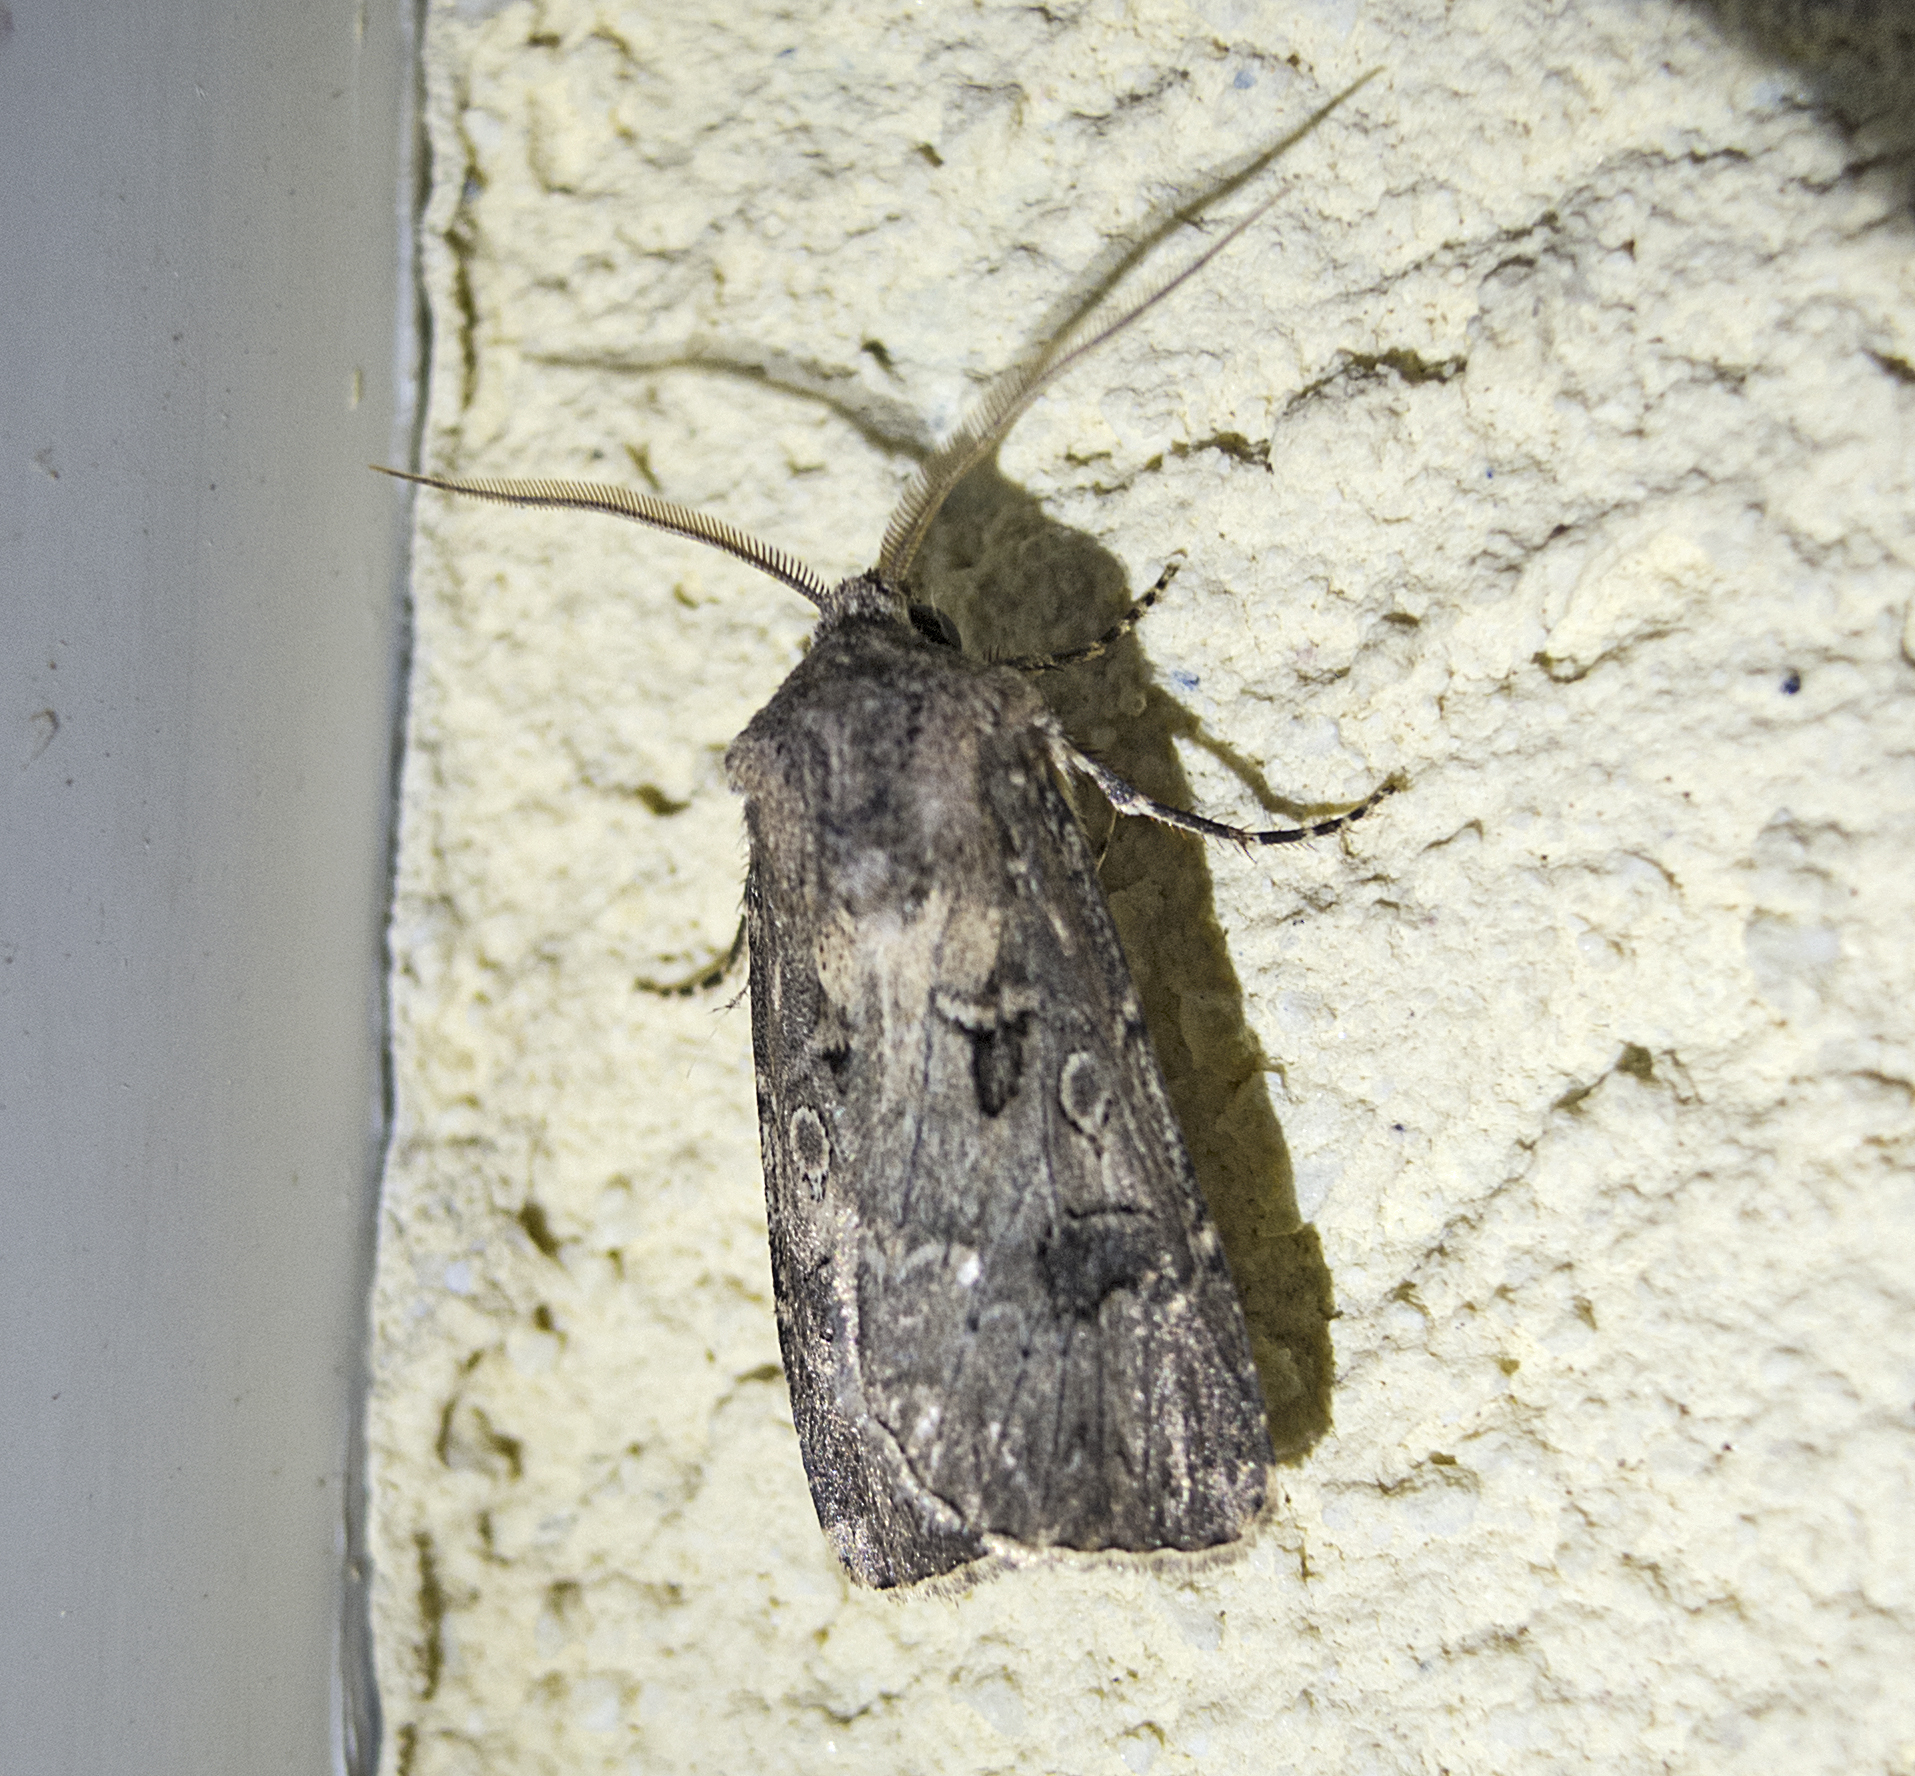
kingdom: Animalia
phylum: Arthropoda
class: Insecta
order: Lepidoptera
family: Noctuidae
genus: Agrotis
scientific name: Agrotis bigramma
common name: Great dart
